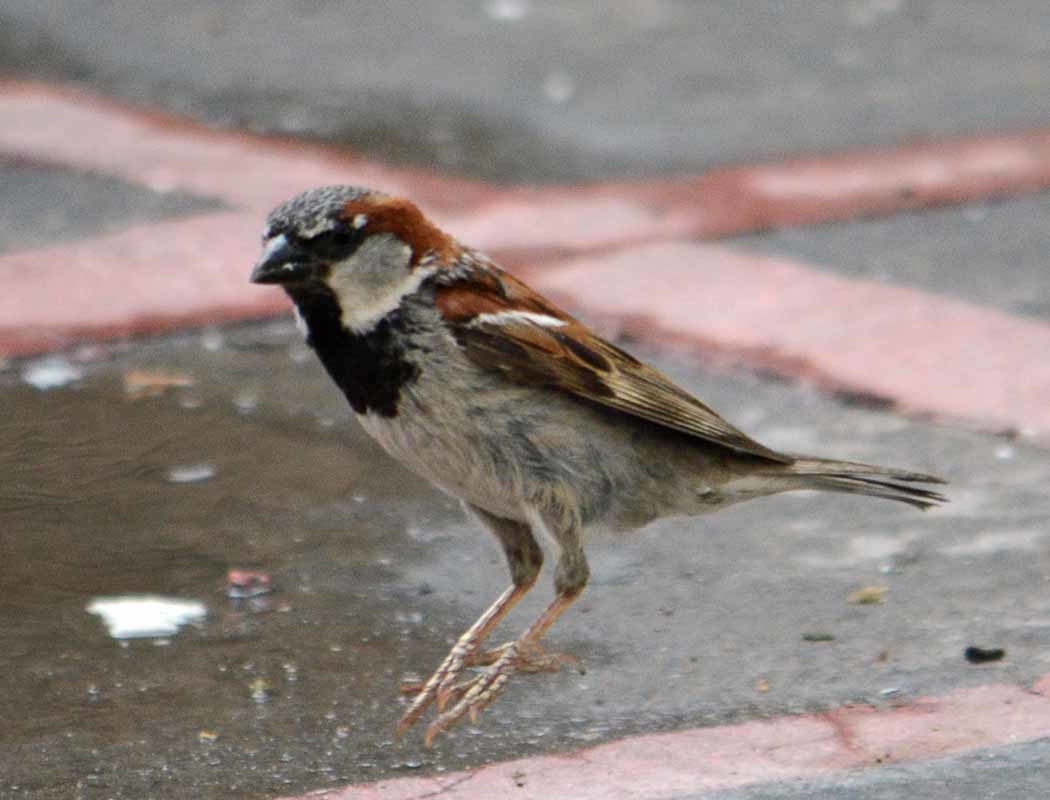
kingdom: Animalia
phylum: Chordata
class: Aves
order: Passeriformes
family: Passeridae
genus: Passer
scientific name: Passer domesticus
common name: House sparrow
